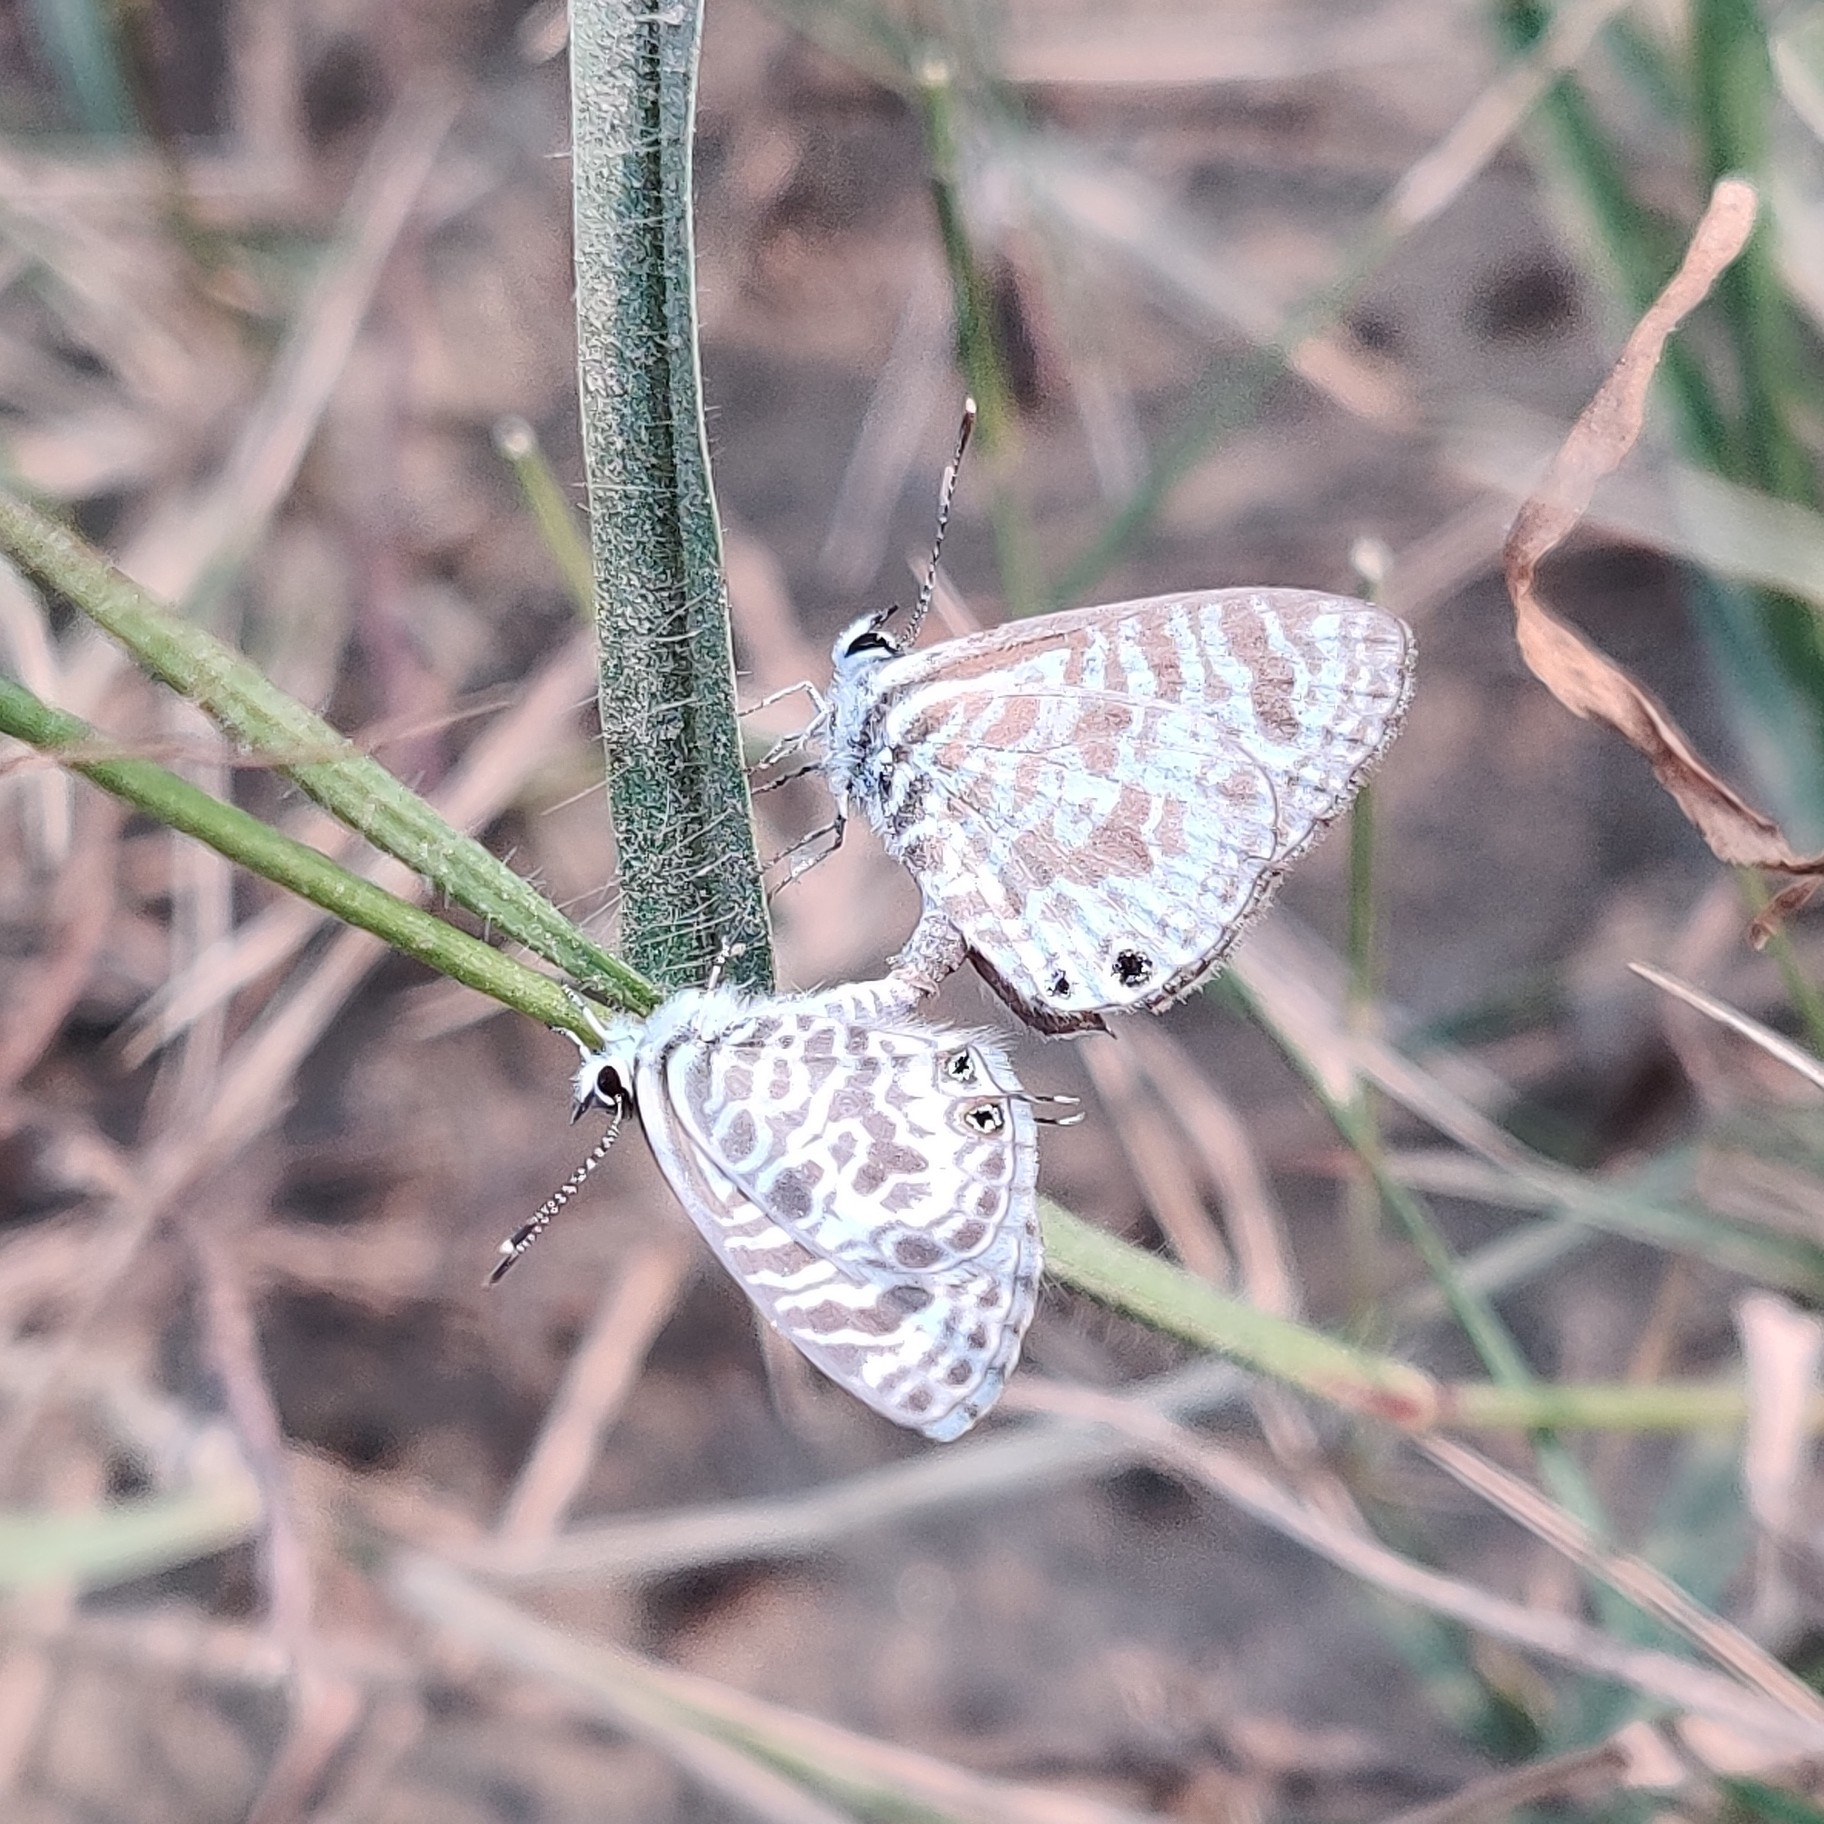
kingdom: Animalia
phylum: Arthropoda
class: Insecta
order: Lepidoptera
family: Lycaenidae
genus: Leptotes
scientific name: Leptotes plinius
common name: Zebra blue
